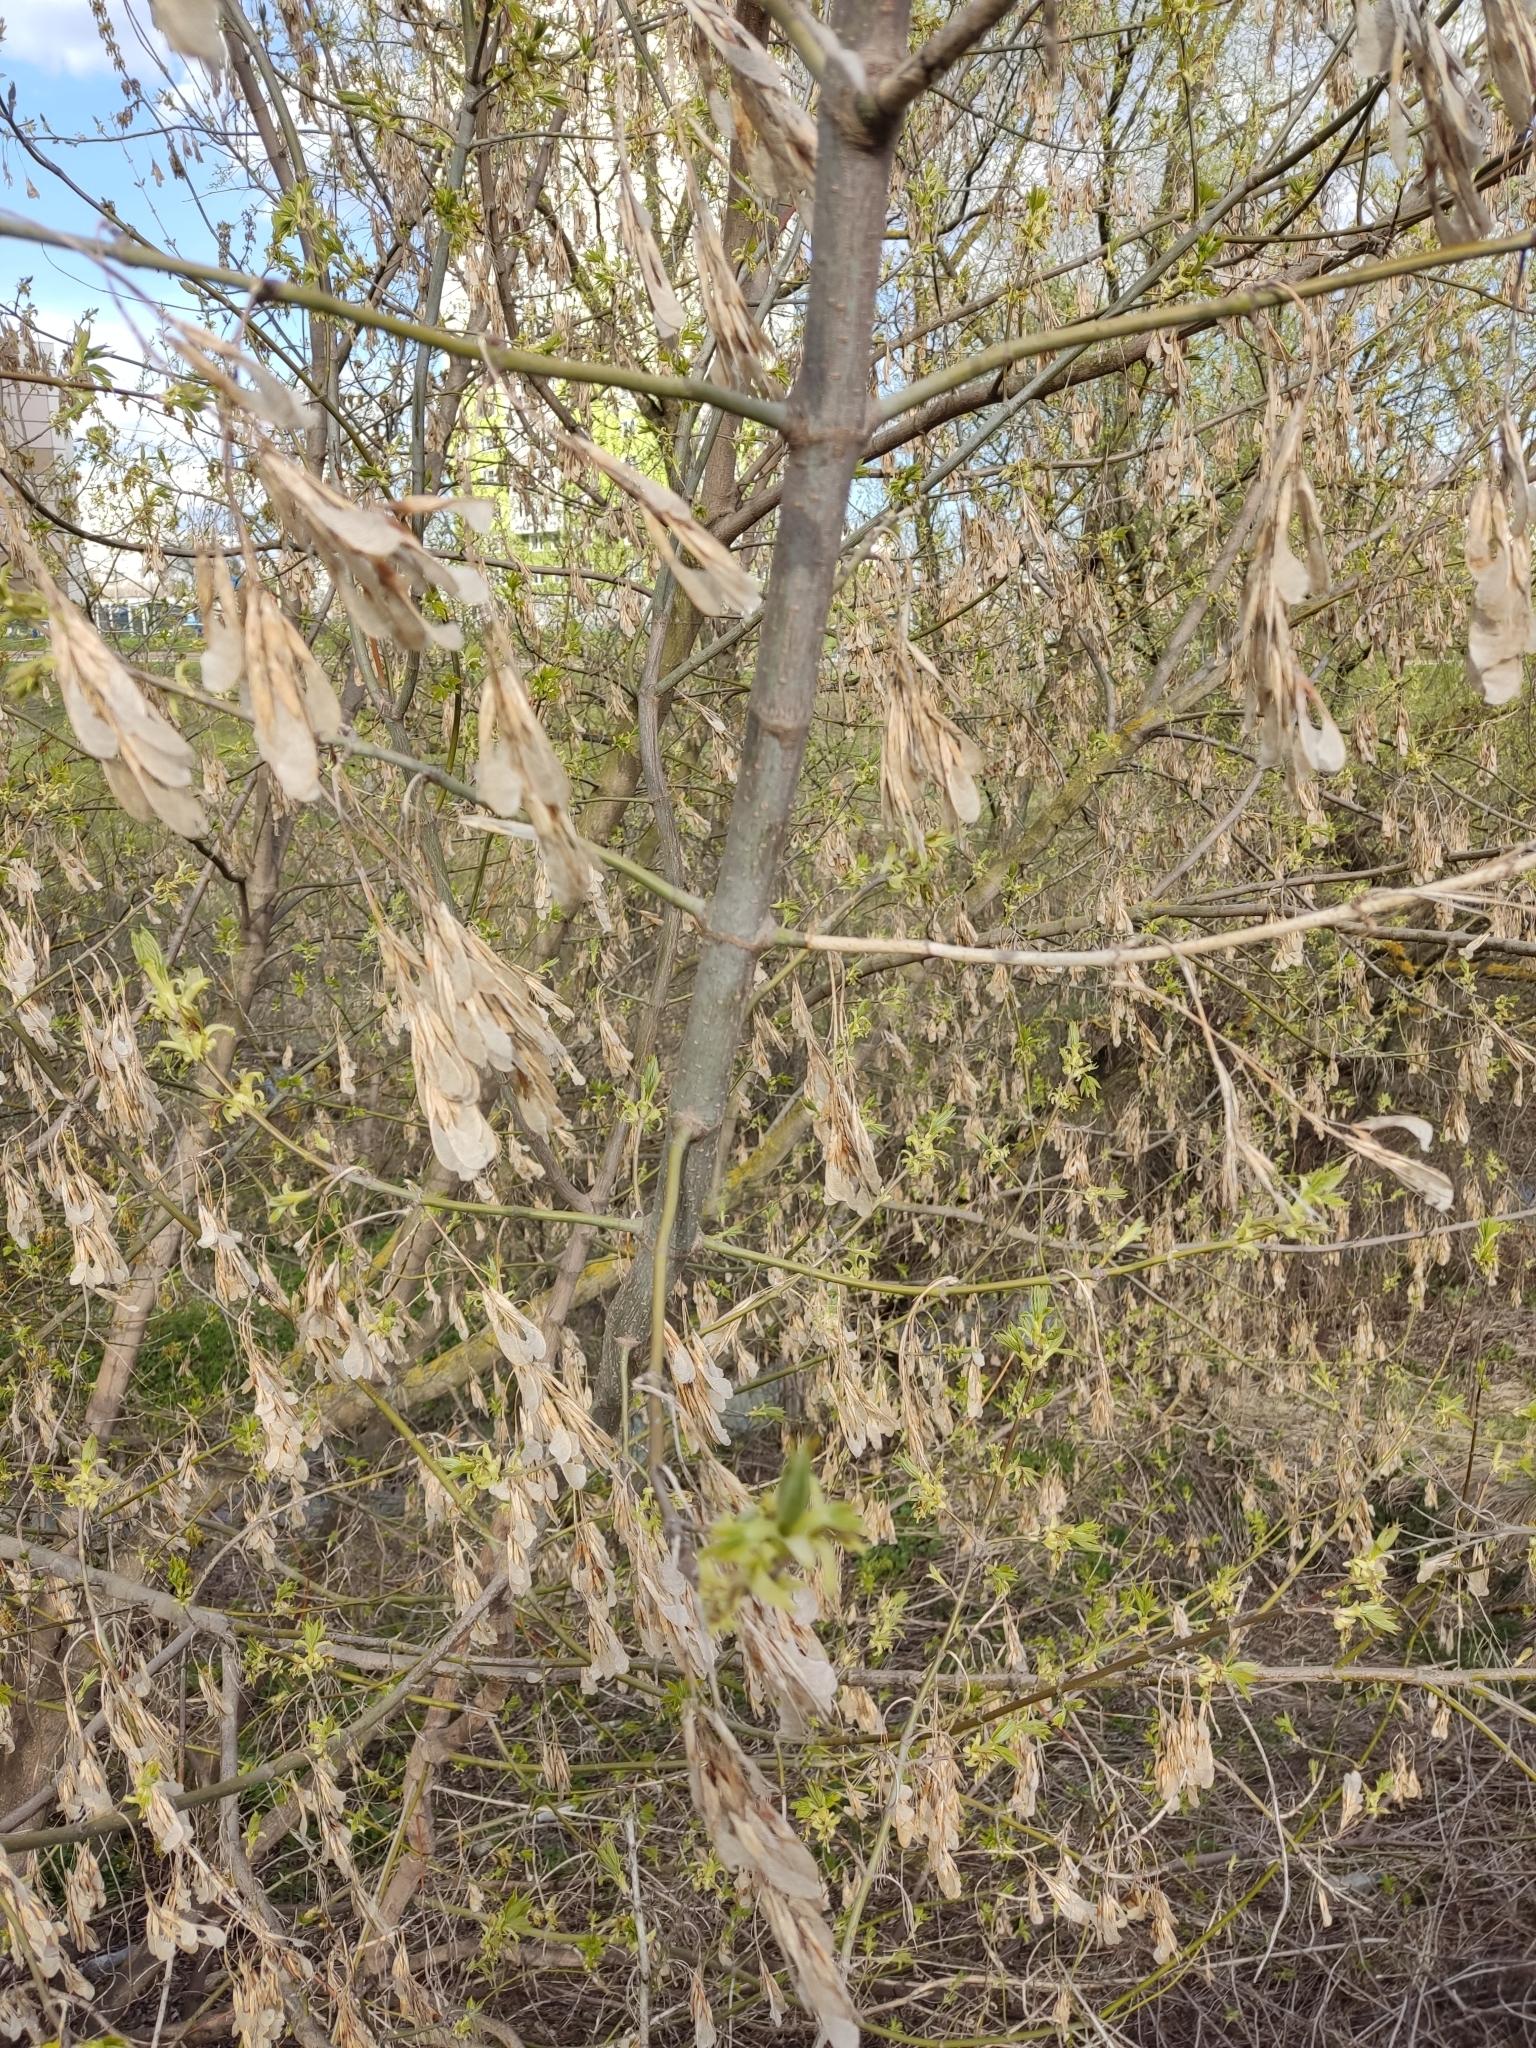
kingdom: Plantae
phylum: Tracheophyta
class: Magnoliopsida
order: Sapindales
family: Sapindaceae
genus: Acer
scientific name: Acer negundo
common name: Ashleaf maple
